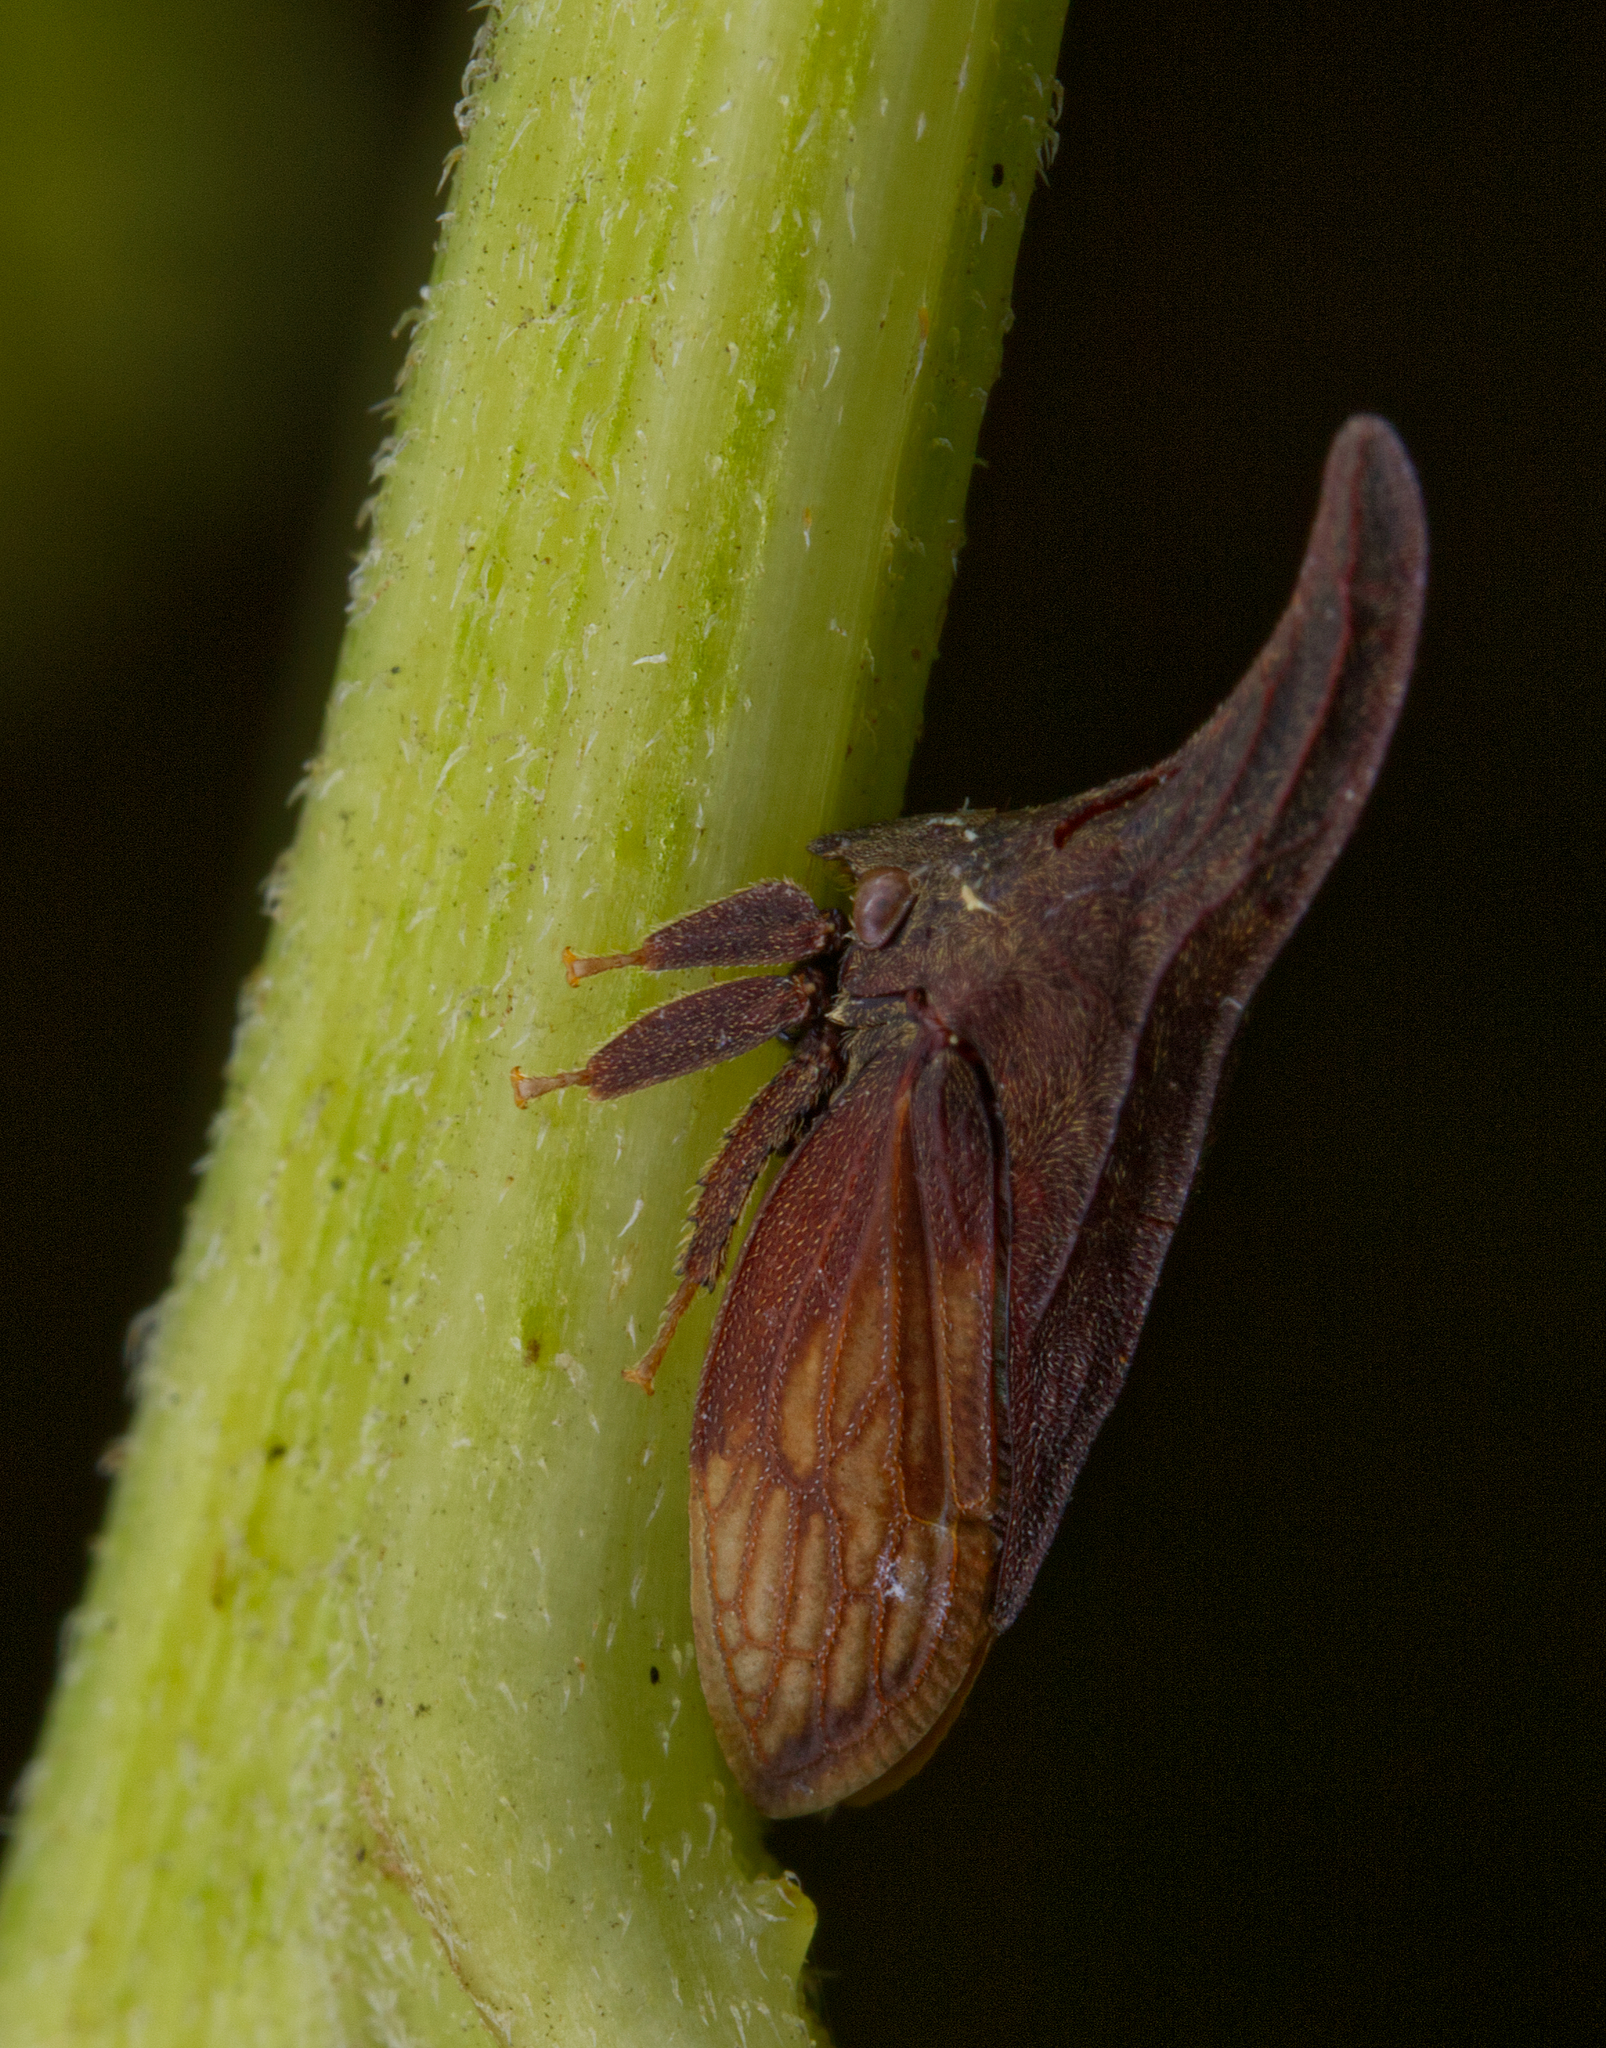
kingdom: Animalia
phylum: Arthropoda
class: Insecta
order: Hemiptera
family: Membracidae
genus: Enchenopa
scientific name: Enchenopa latipes
